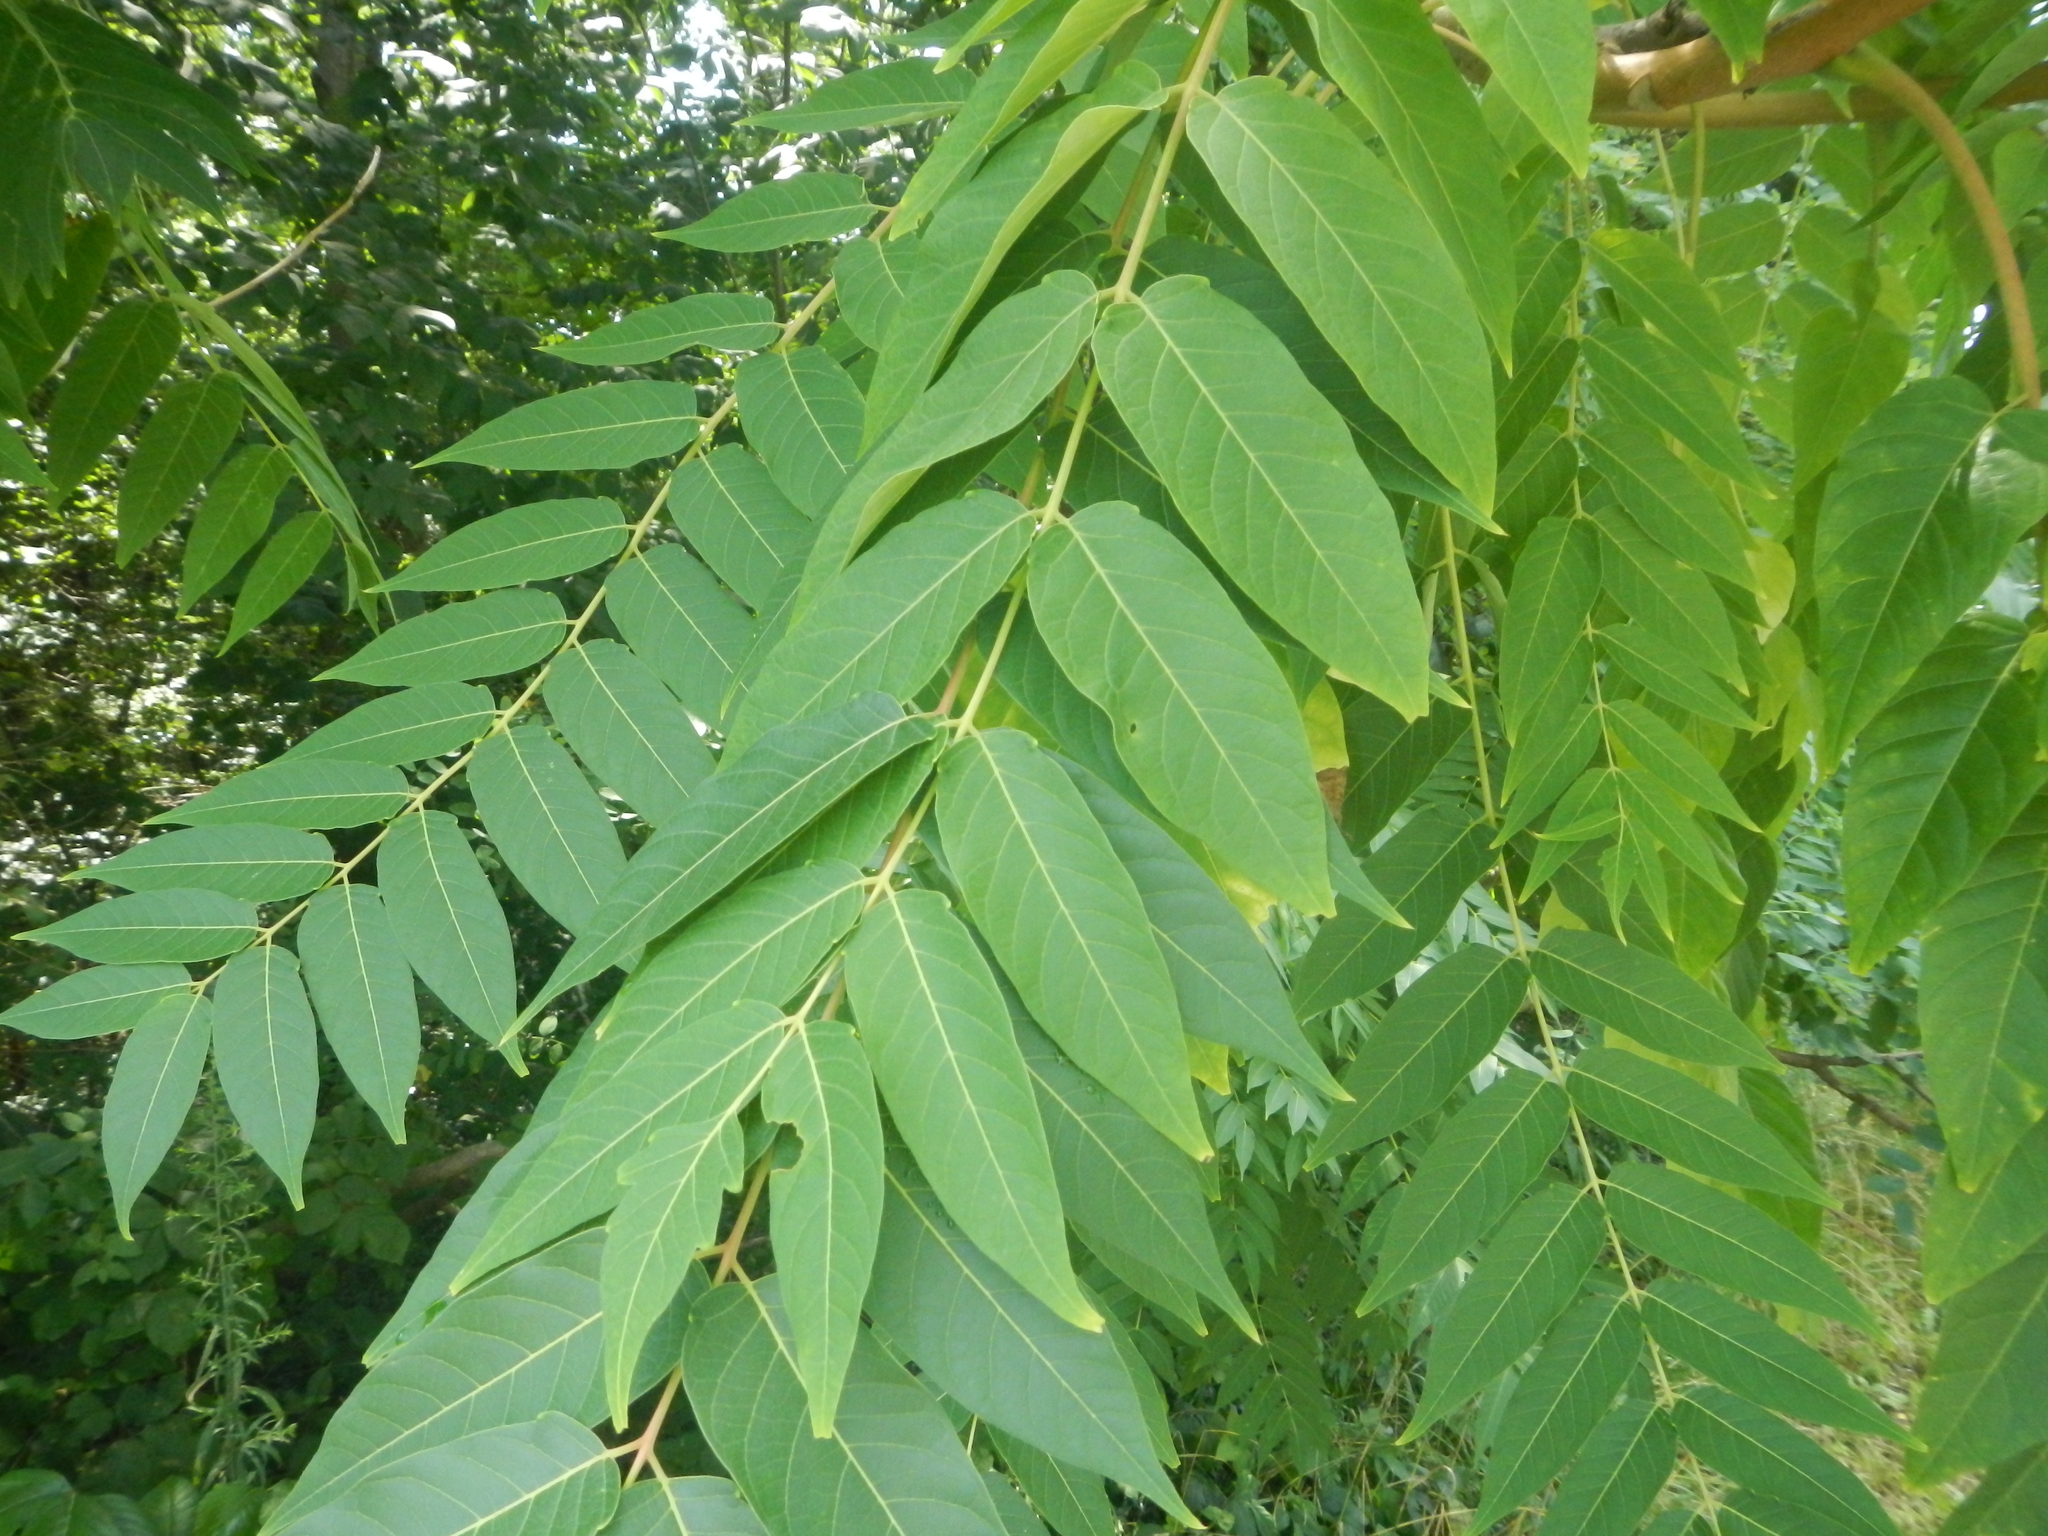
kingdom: Plantae
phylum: Tracheophyta
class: Magnoliopsida
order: Sapindales
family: Simaroubaceae
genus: Ailanthus
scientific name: Ailanthus altissima
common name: Tree-of-heaven
